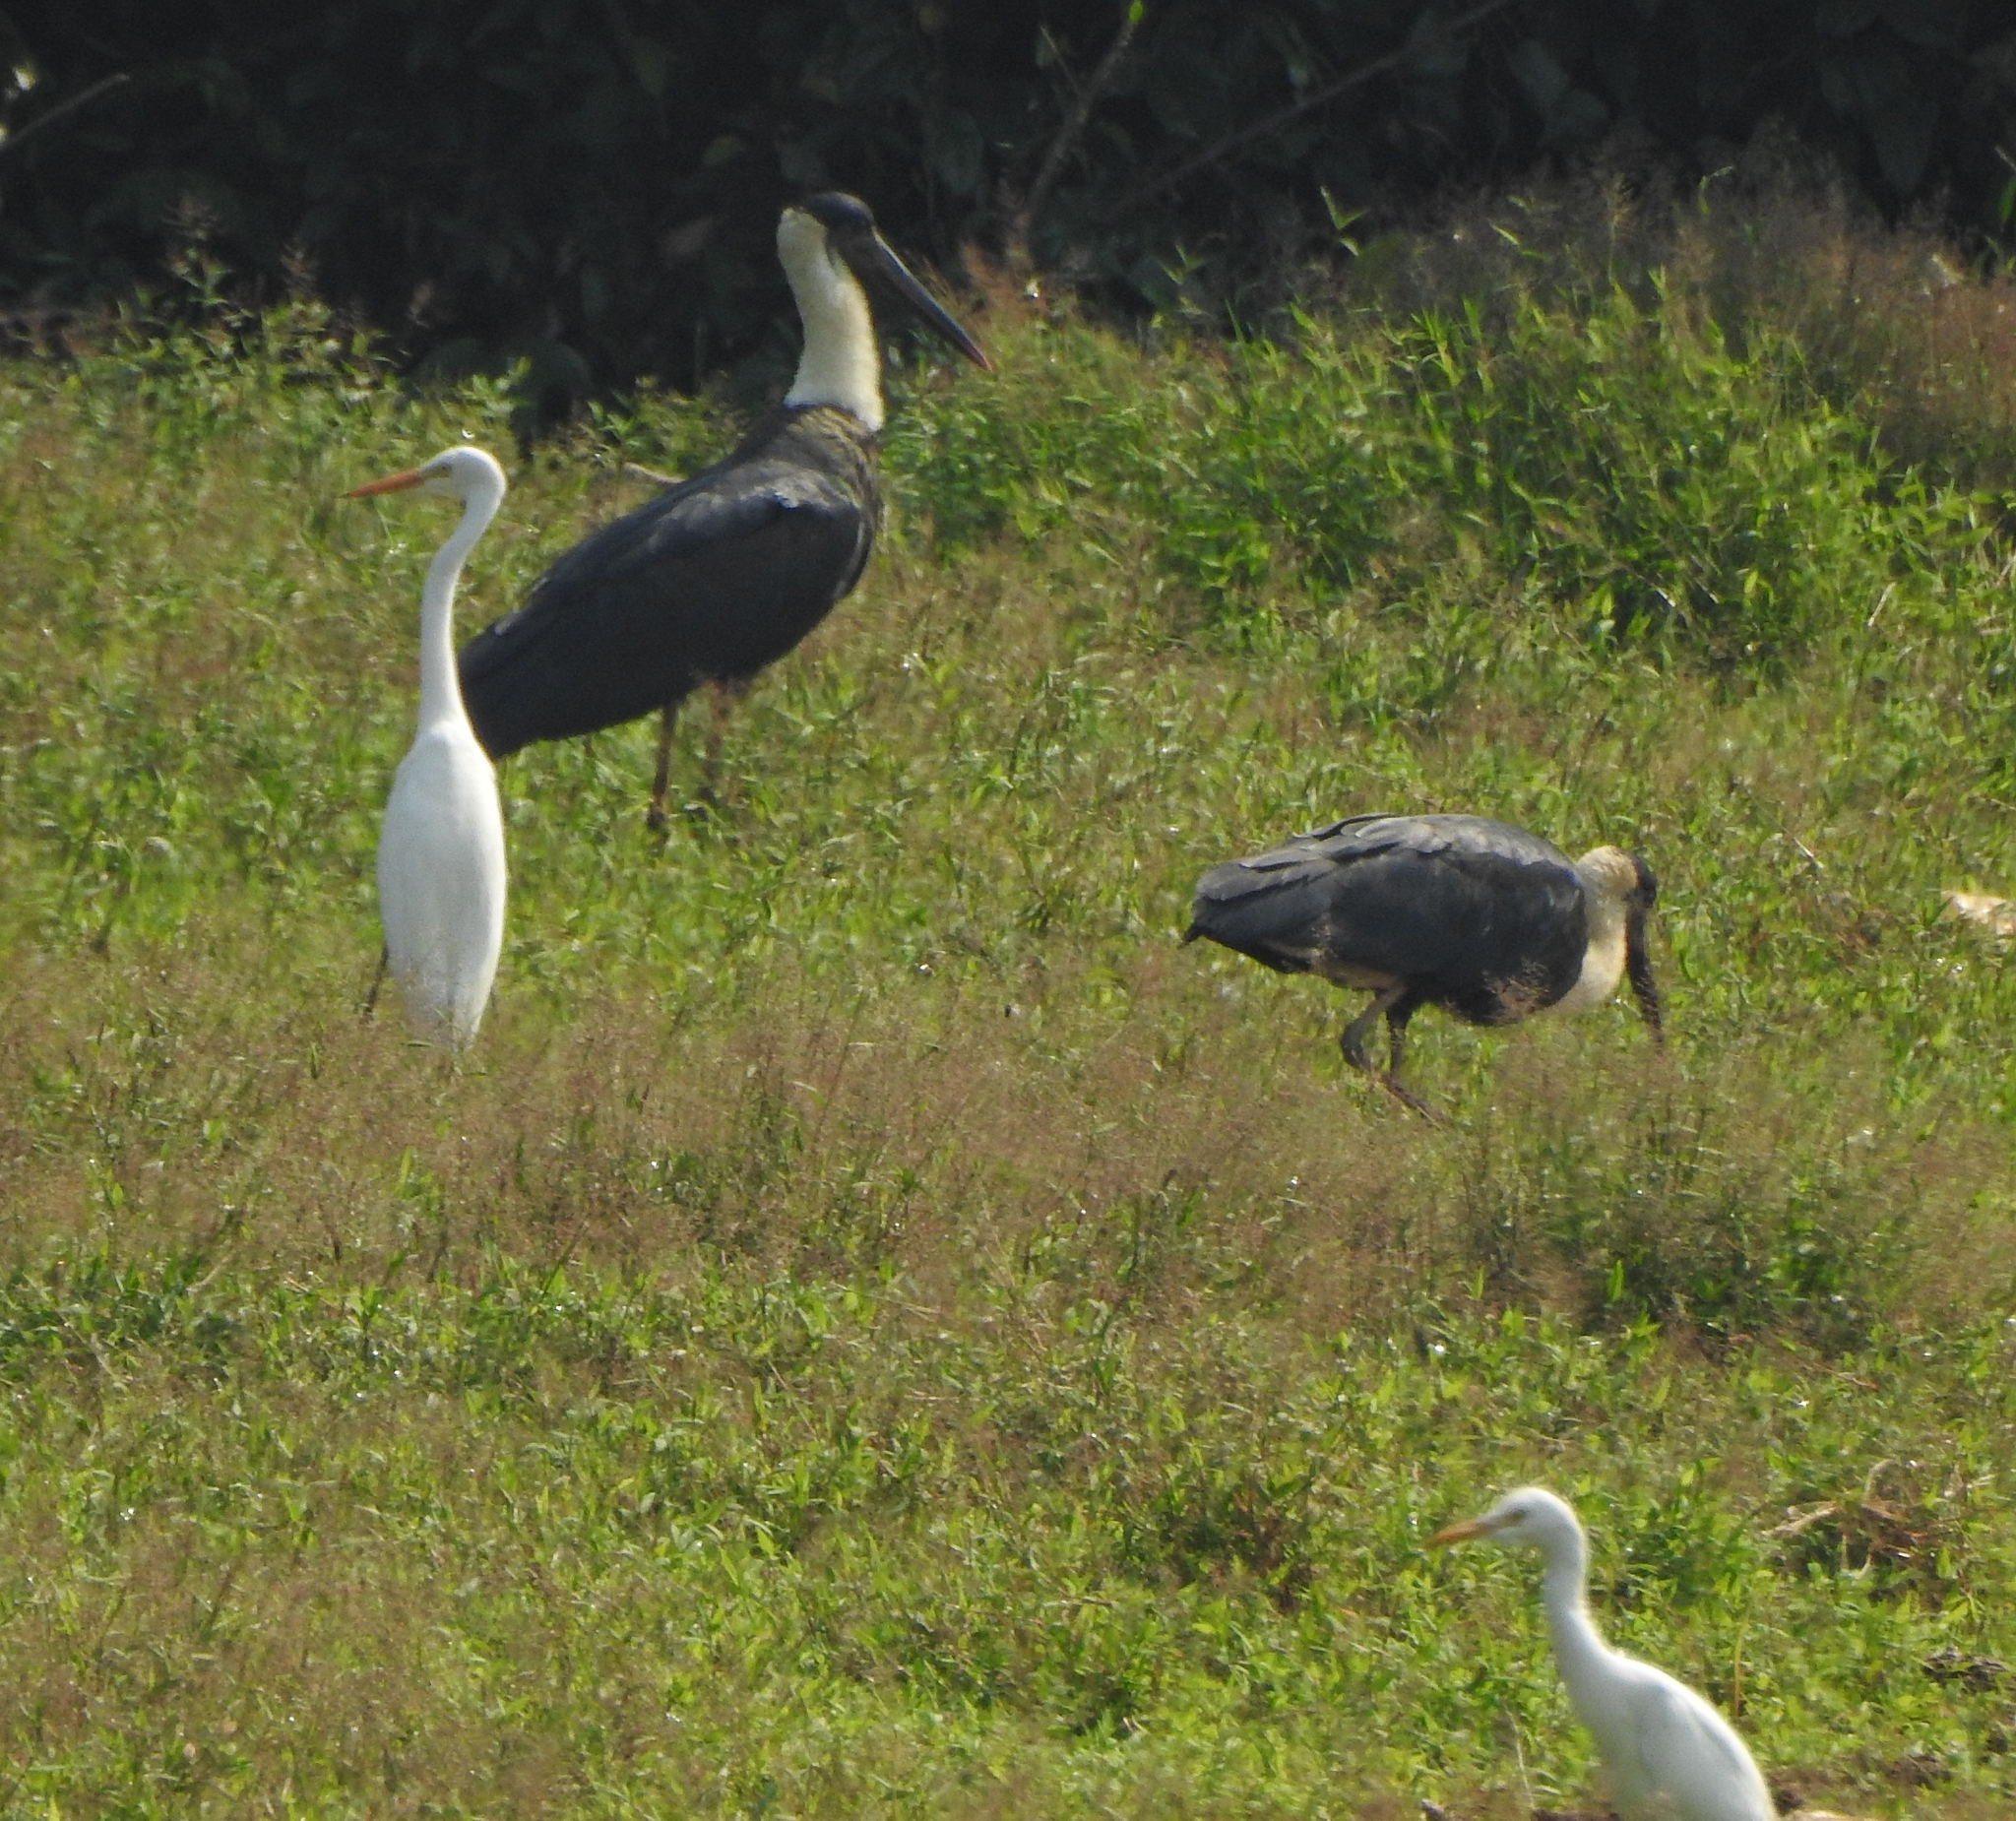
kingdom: Animalia
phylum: Chordata
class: Aves
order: Ciconiiformes
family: Ciconiidae
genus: Ciconia
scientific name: Ciconia episcopus
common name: Woolly-necked stork
